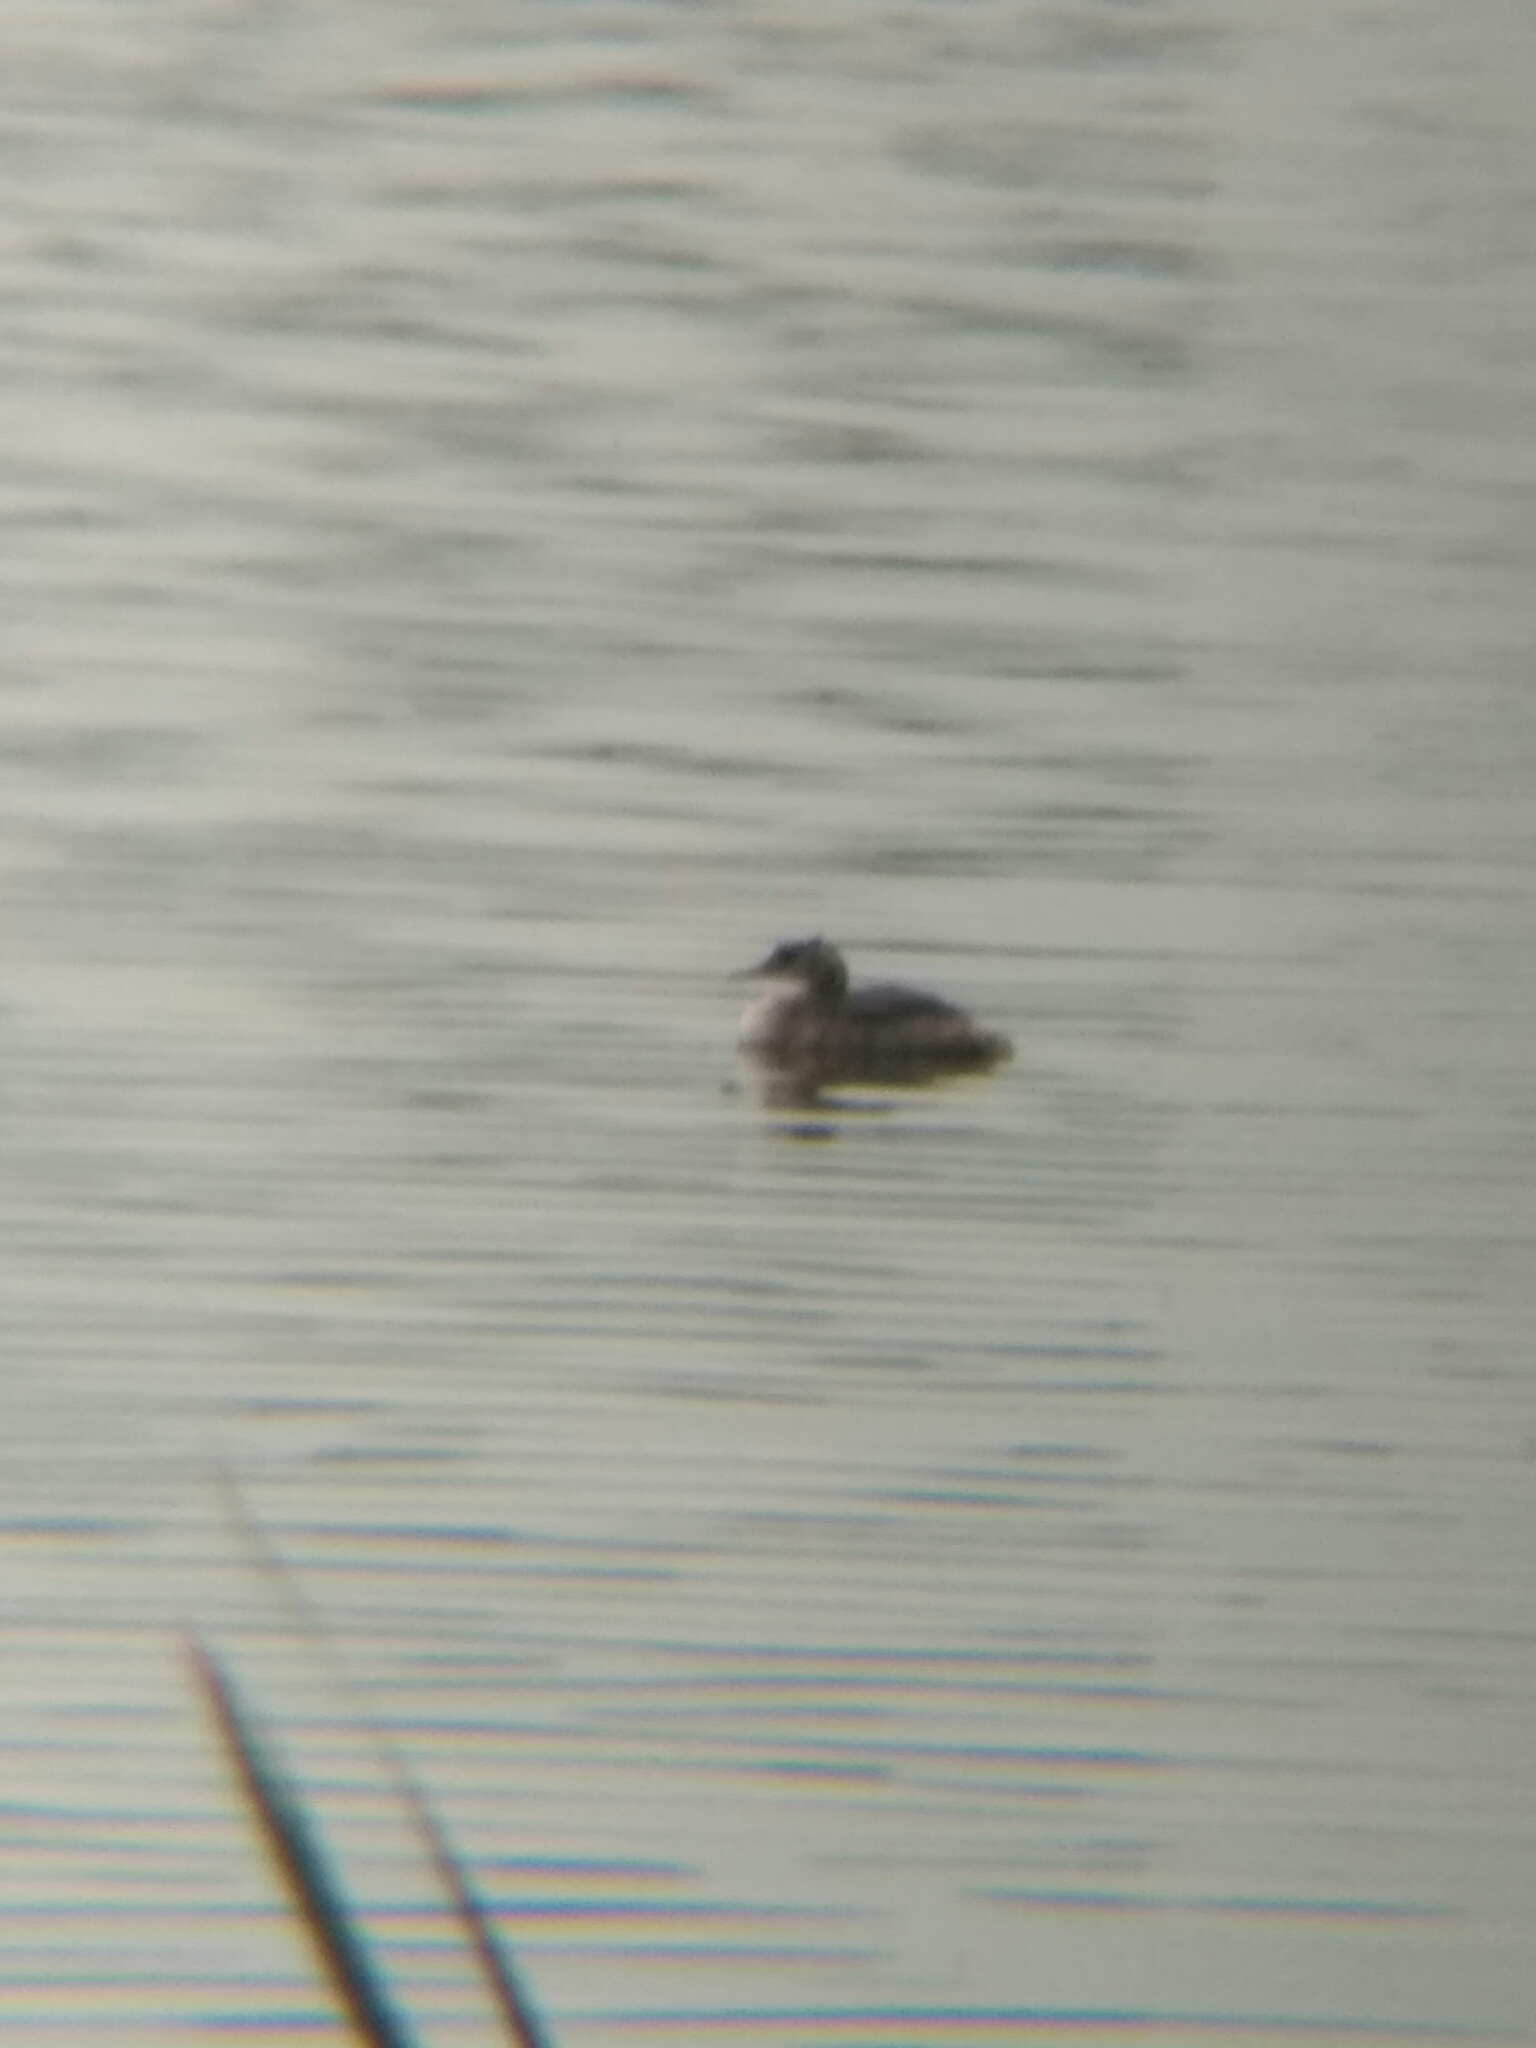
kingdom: Animalia
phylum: Chordata
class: Aves
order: Podicipediformes
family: Podicipedidae
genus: Podiceps
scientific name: Podiceps cristatus
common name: Great crested grebe
